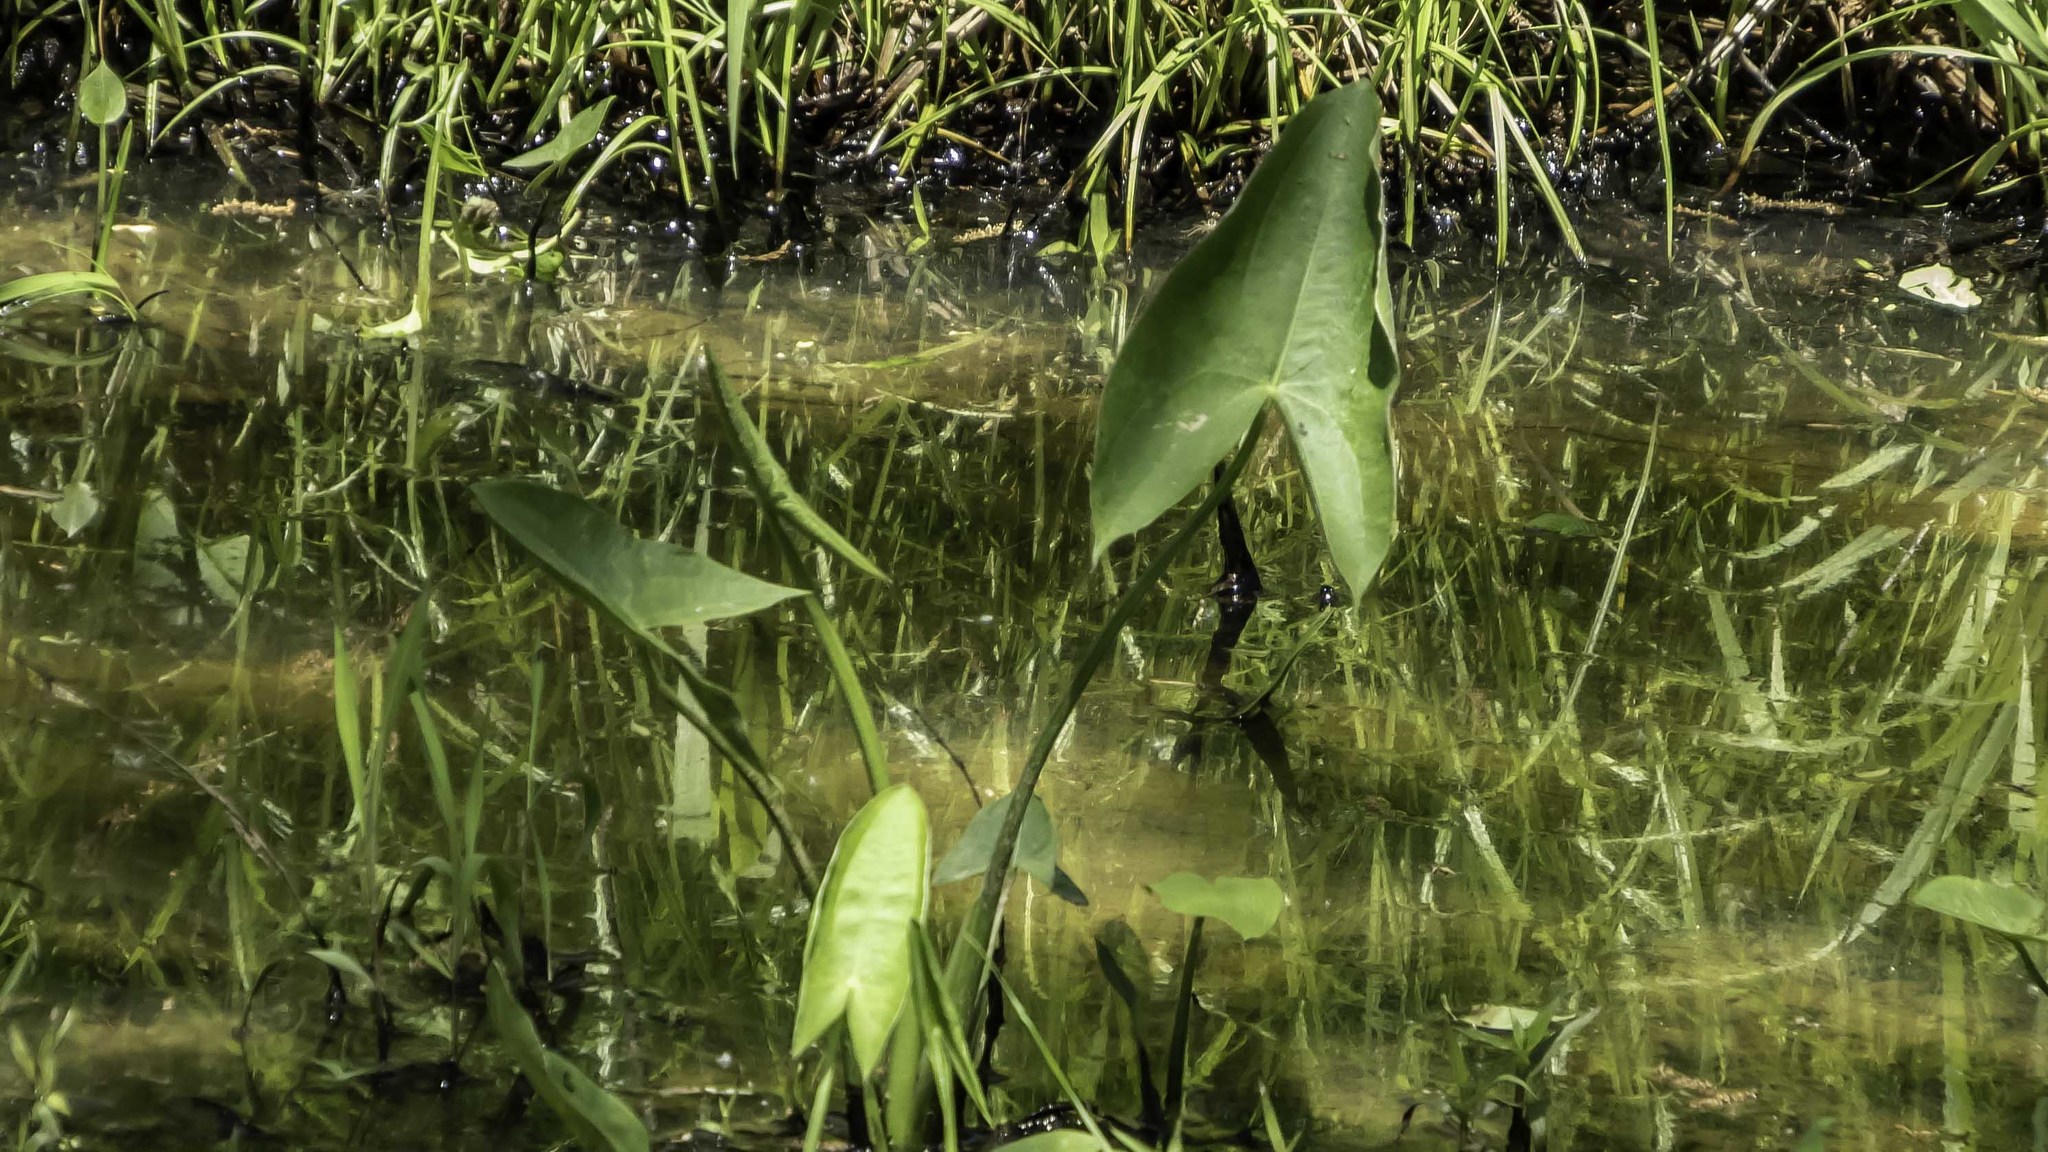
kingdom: Plantae
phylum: Tracheophyta
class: Liliopsida
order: Alismatales
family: Alismataceae
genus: Sagittaria
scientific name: Sagittaria latifolia
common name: Duck-potato
